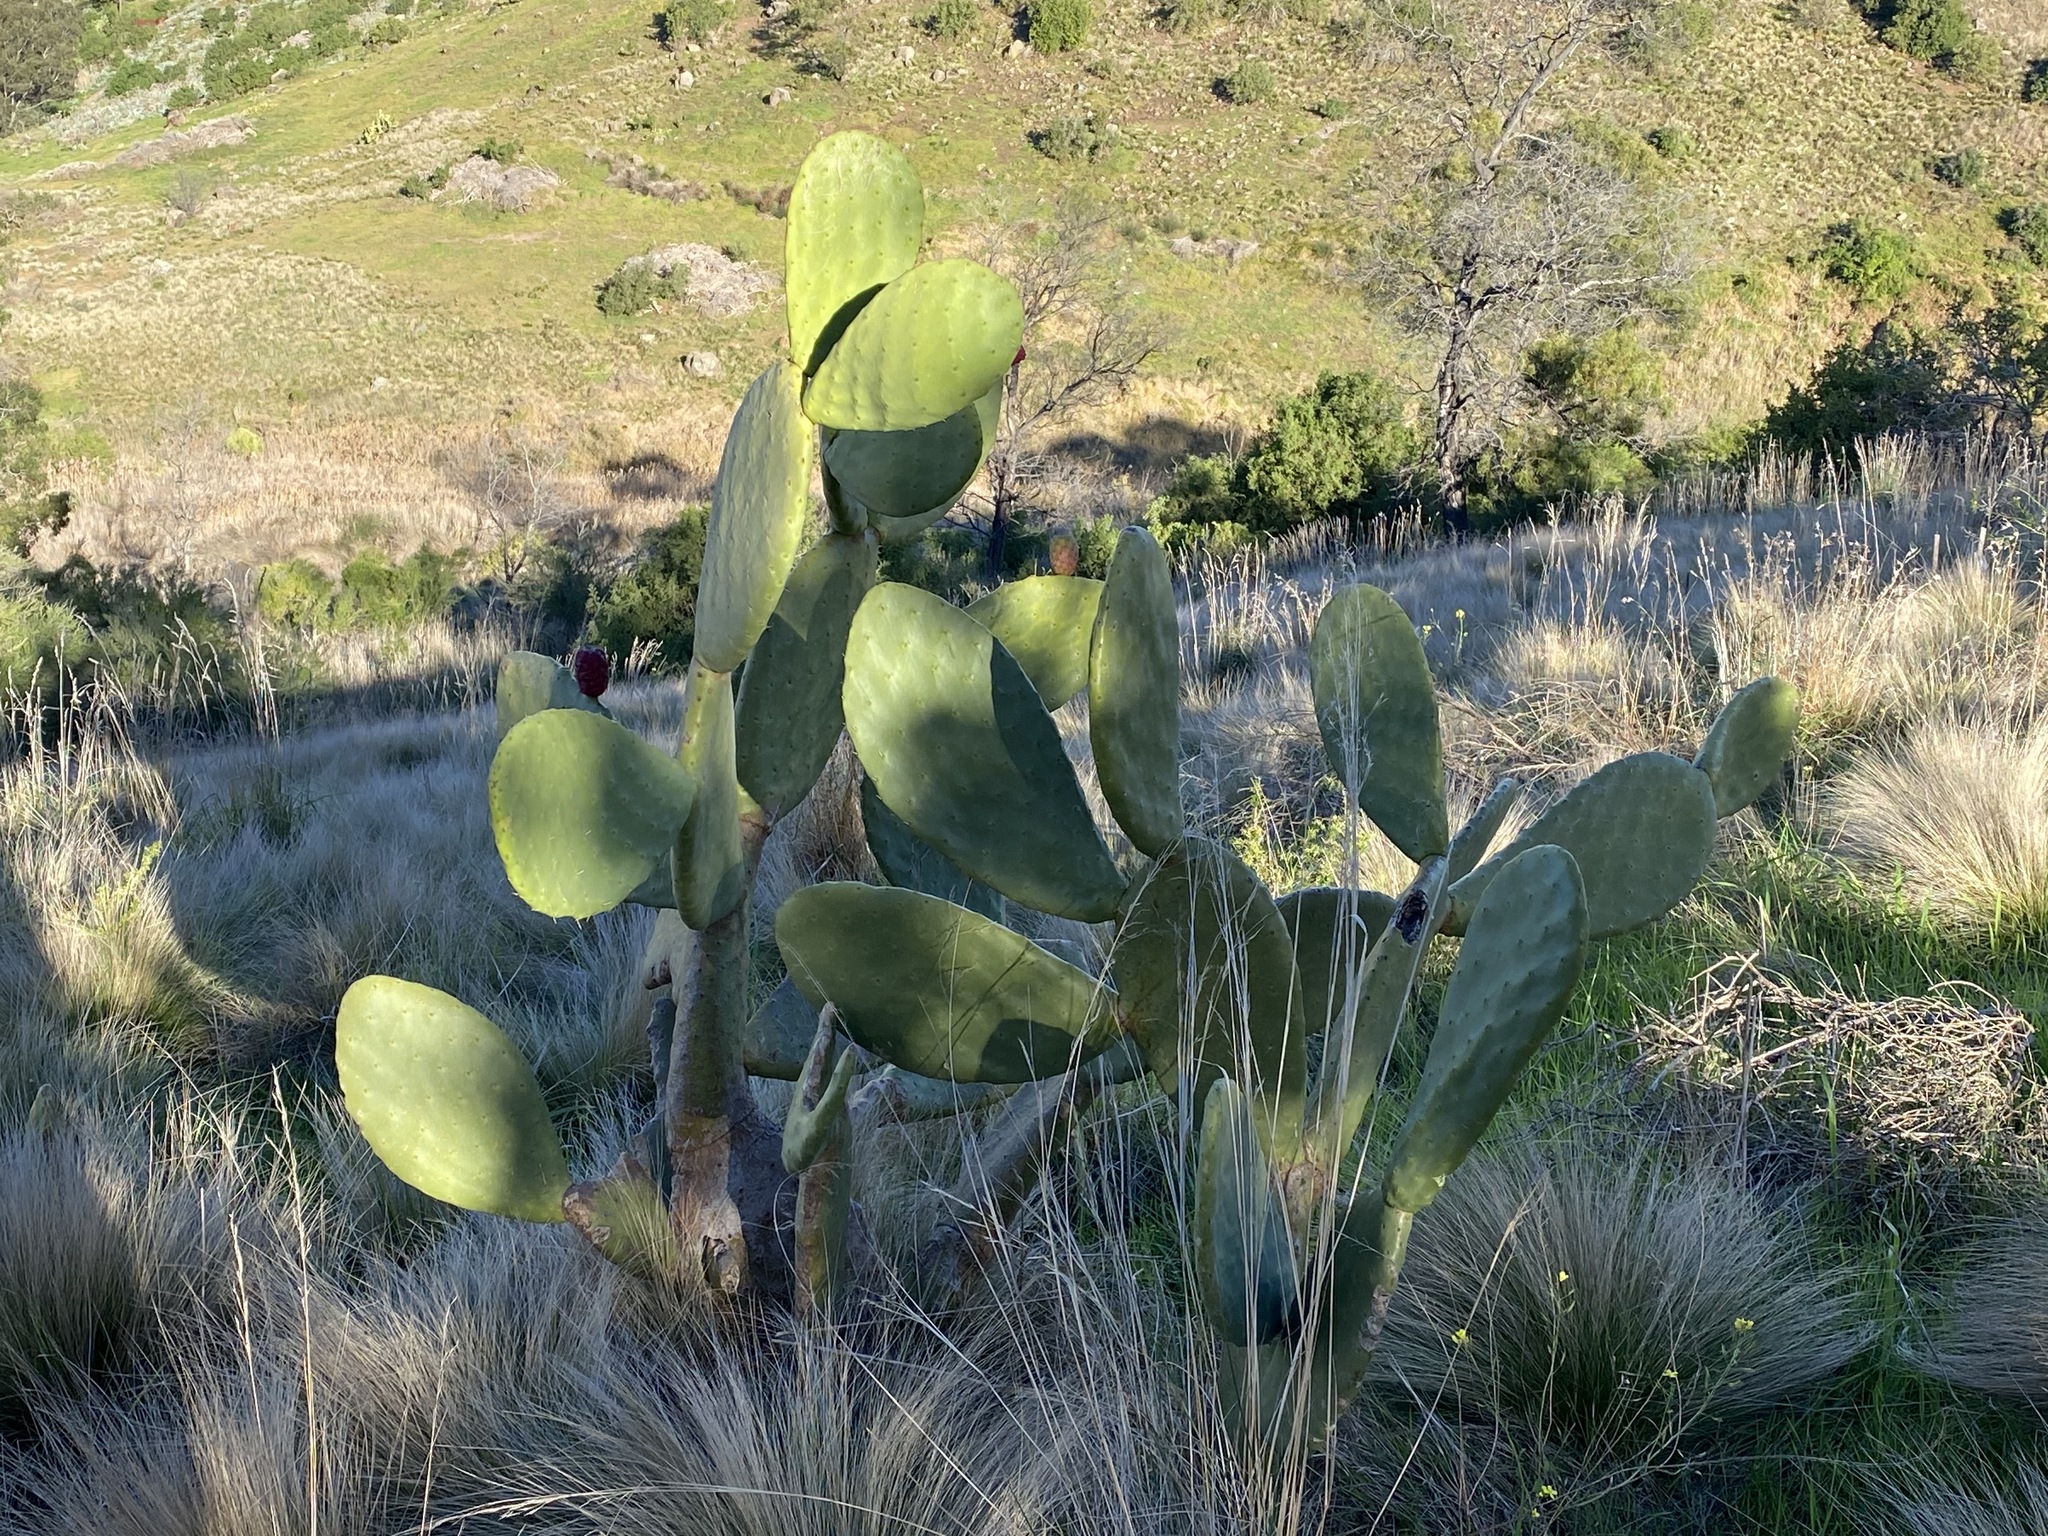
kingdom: Plantae
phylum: Tracheophyta
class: Magnoliopsida
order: Caryophyllales
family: Cactaceae
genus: Opuntia
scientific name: Opuntia ficus-indica
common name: Barbary fig
